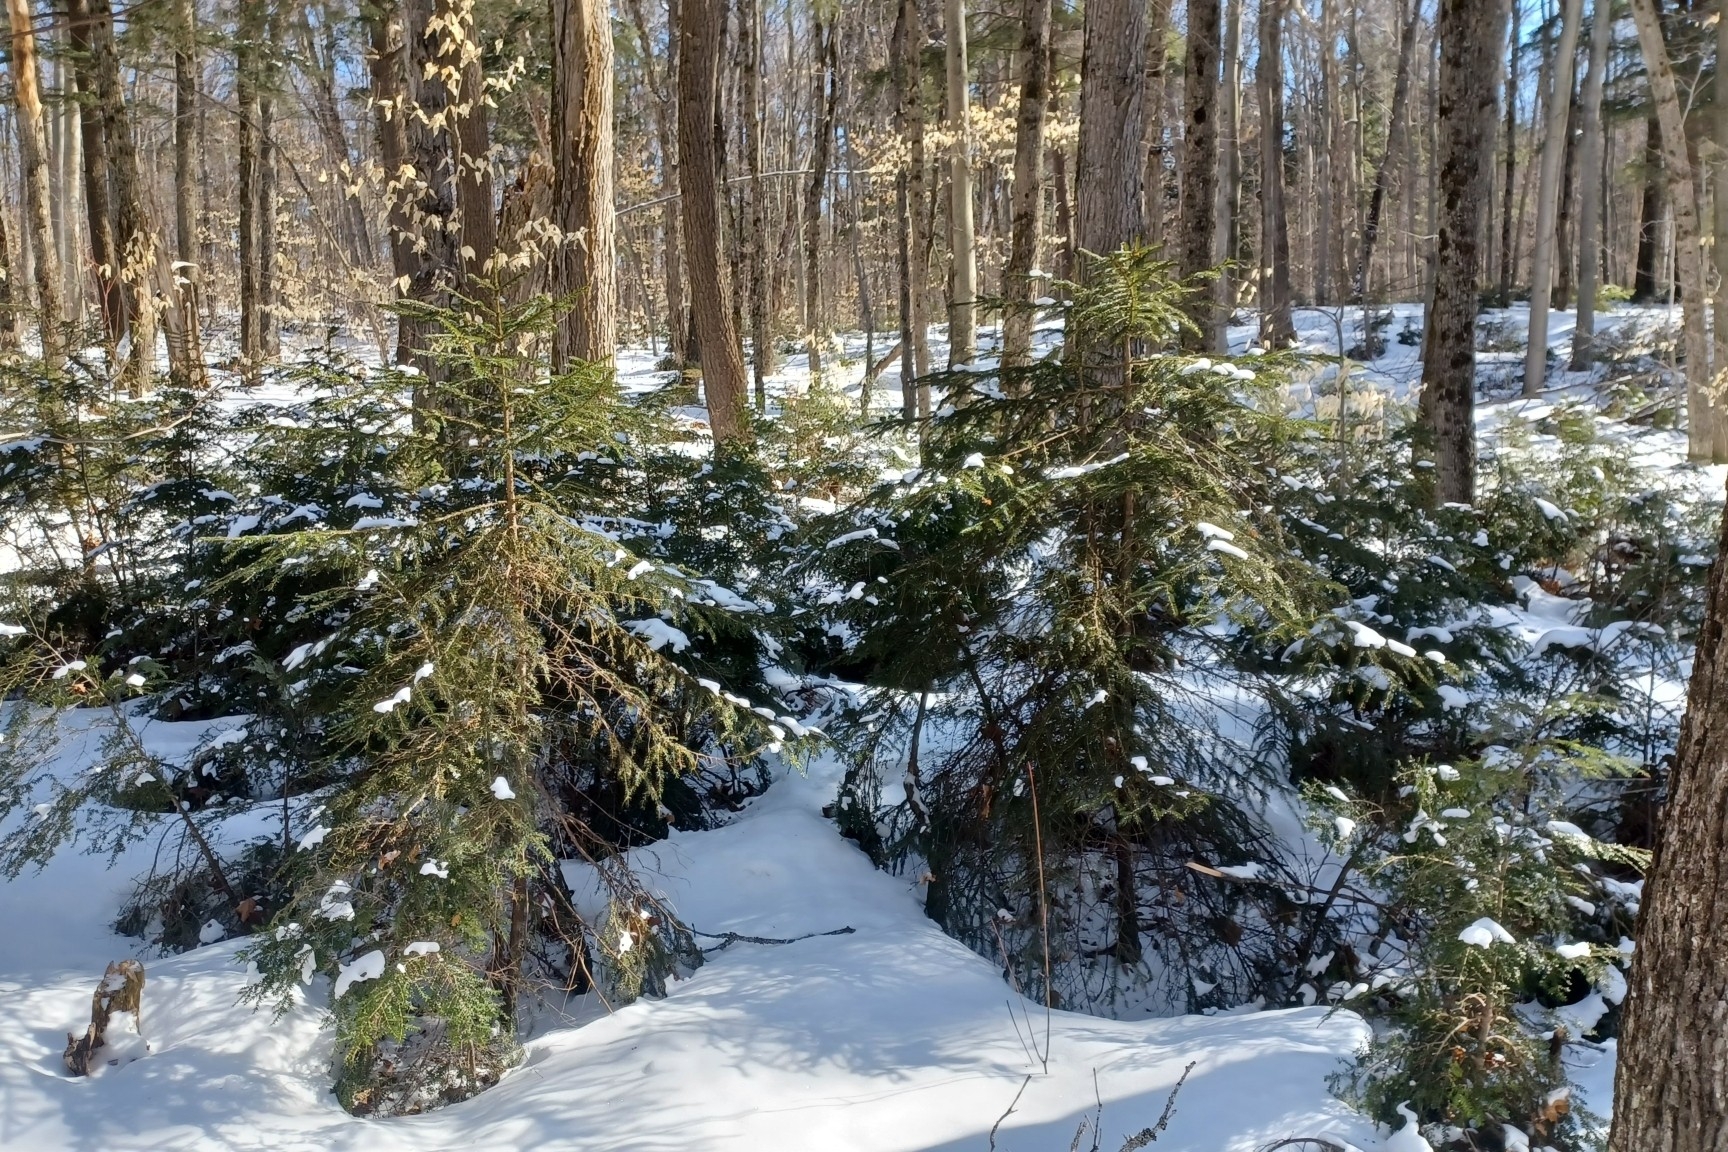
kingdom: Plantae
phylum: Tracheophyta
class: Pinopsida
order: Pinales
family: Pinaceae
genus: Picea
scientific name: Picea rubens
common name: Red spruce
